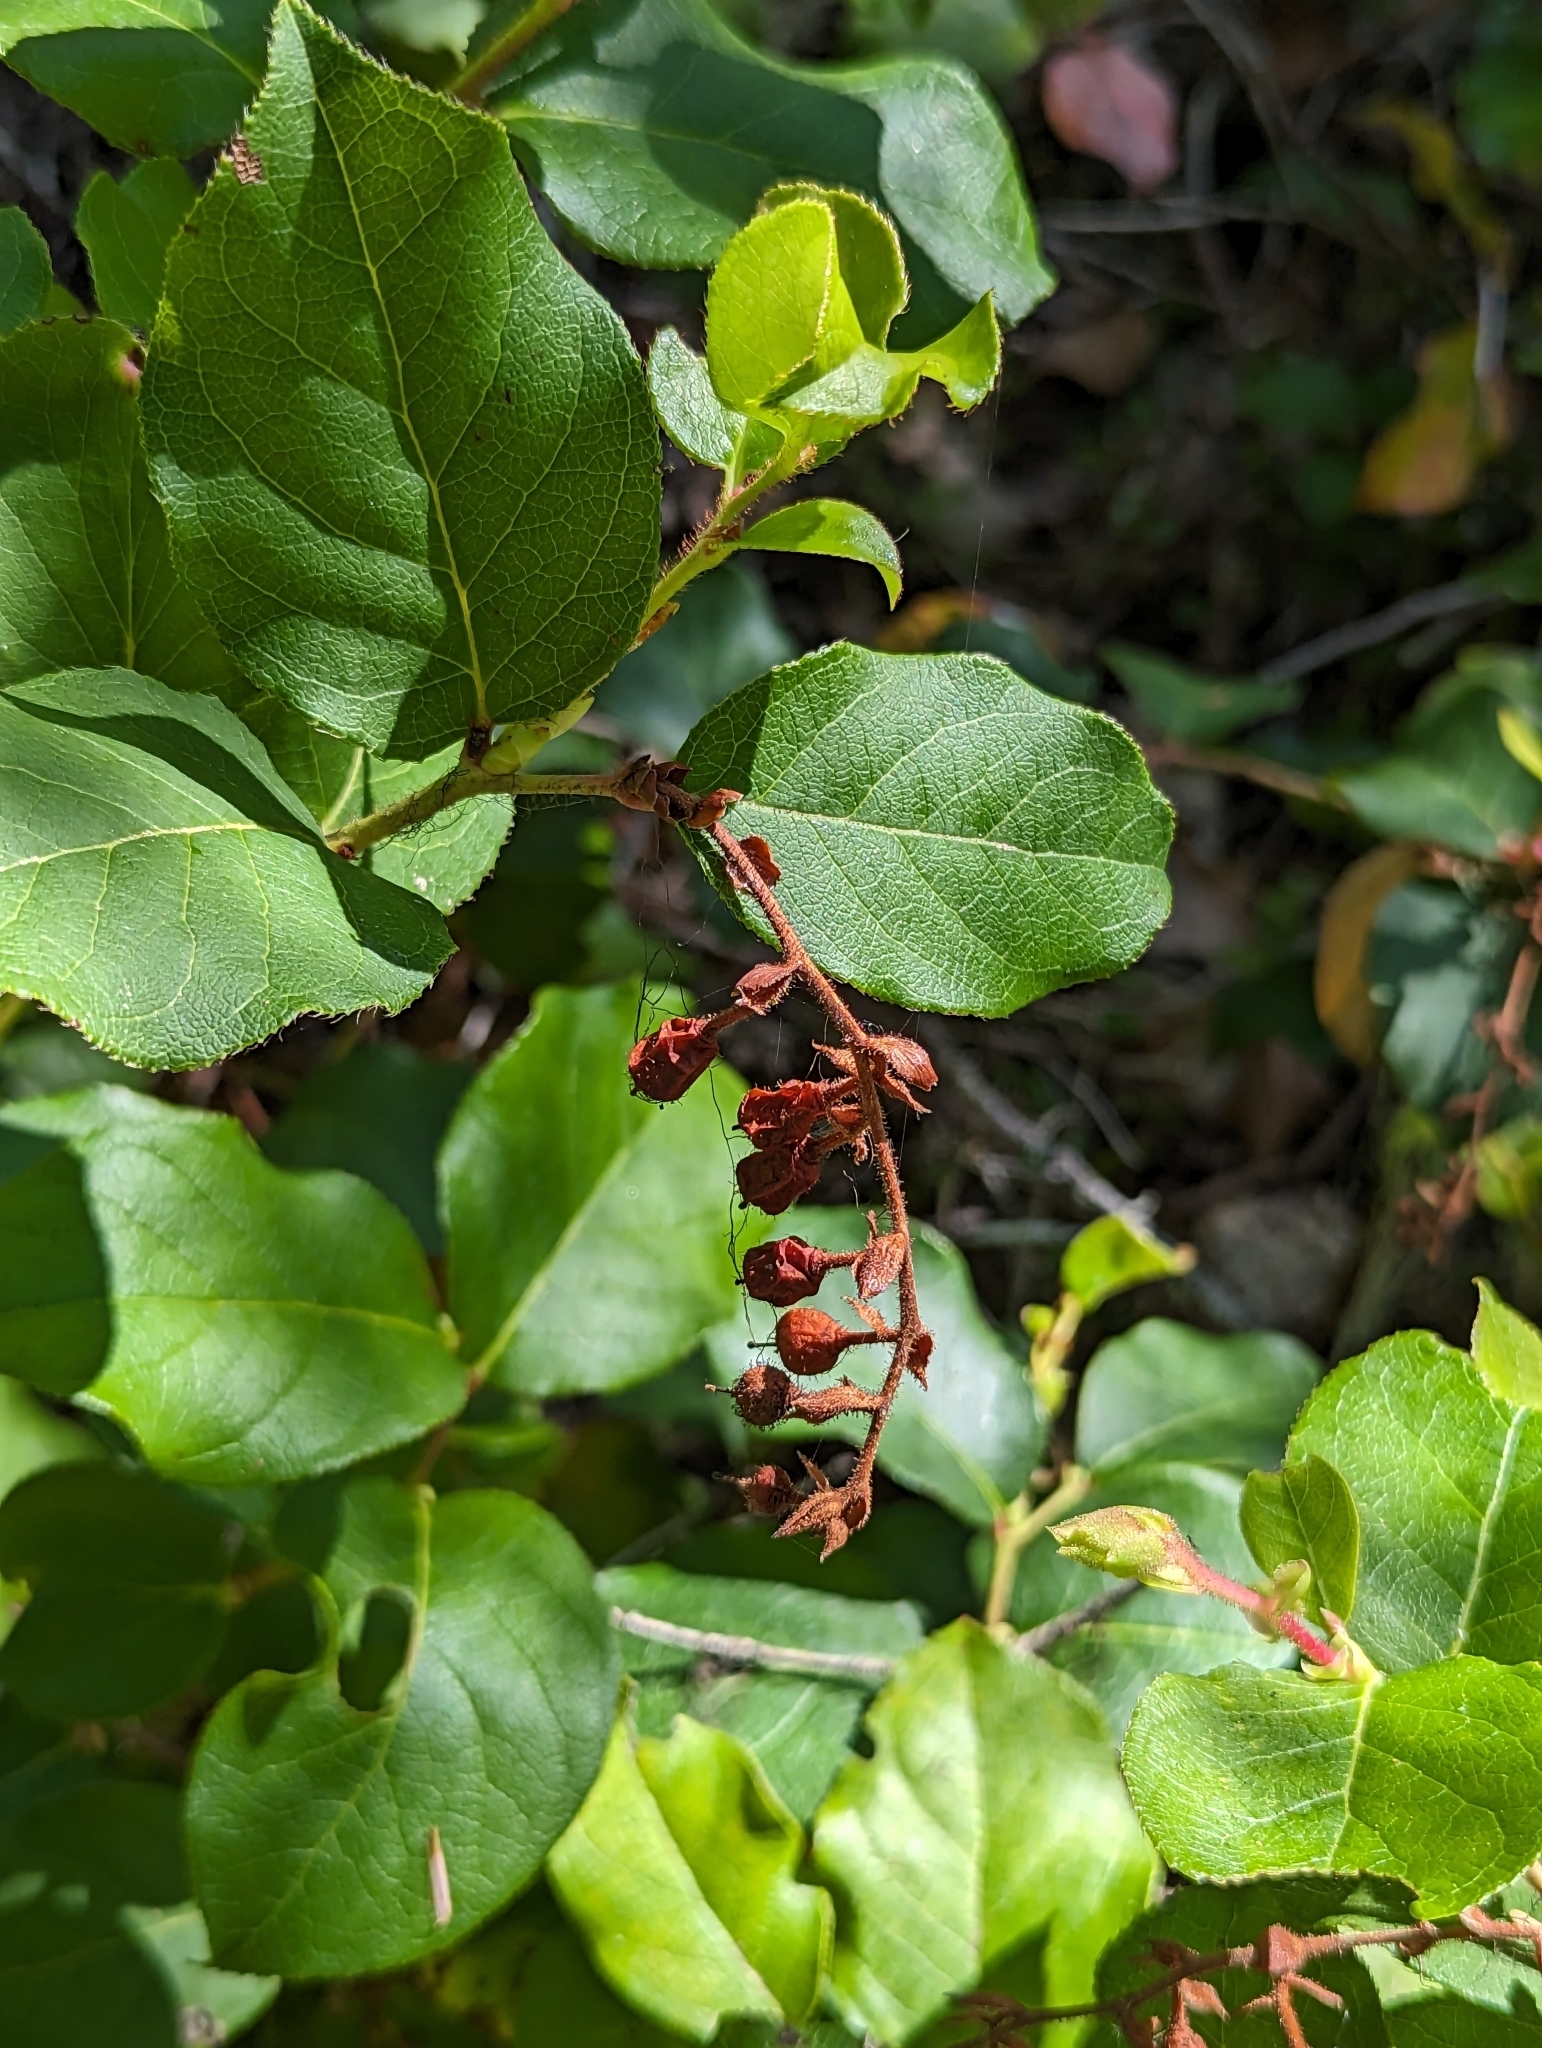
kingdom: Plantae
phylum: Tracheophyta
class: Magnoliopsida
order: Ericales
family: Ericaceae
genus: Gaultheria
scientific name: Gaultheria shallon
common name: Shallon
